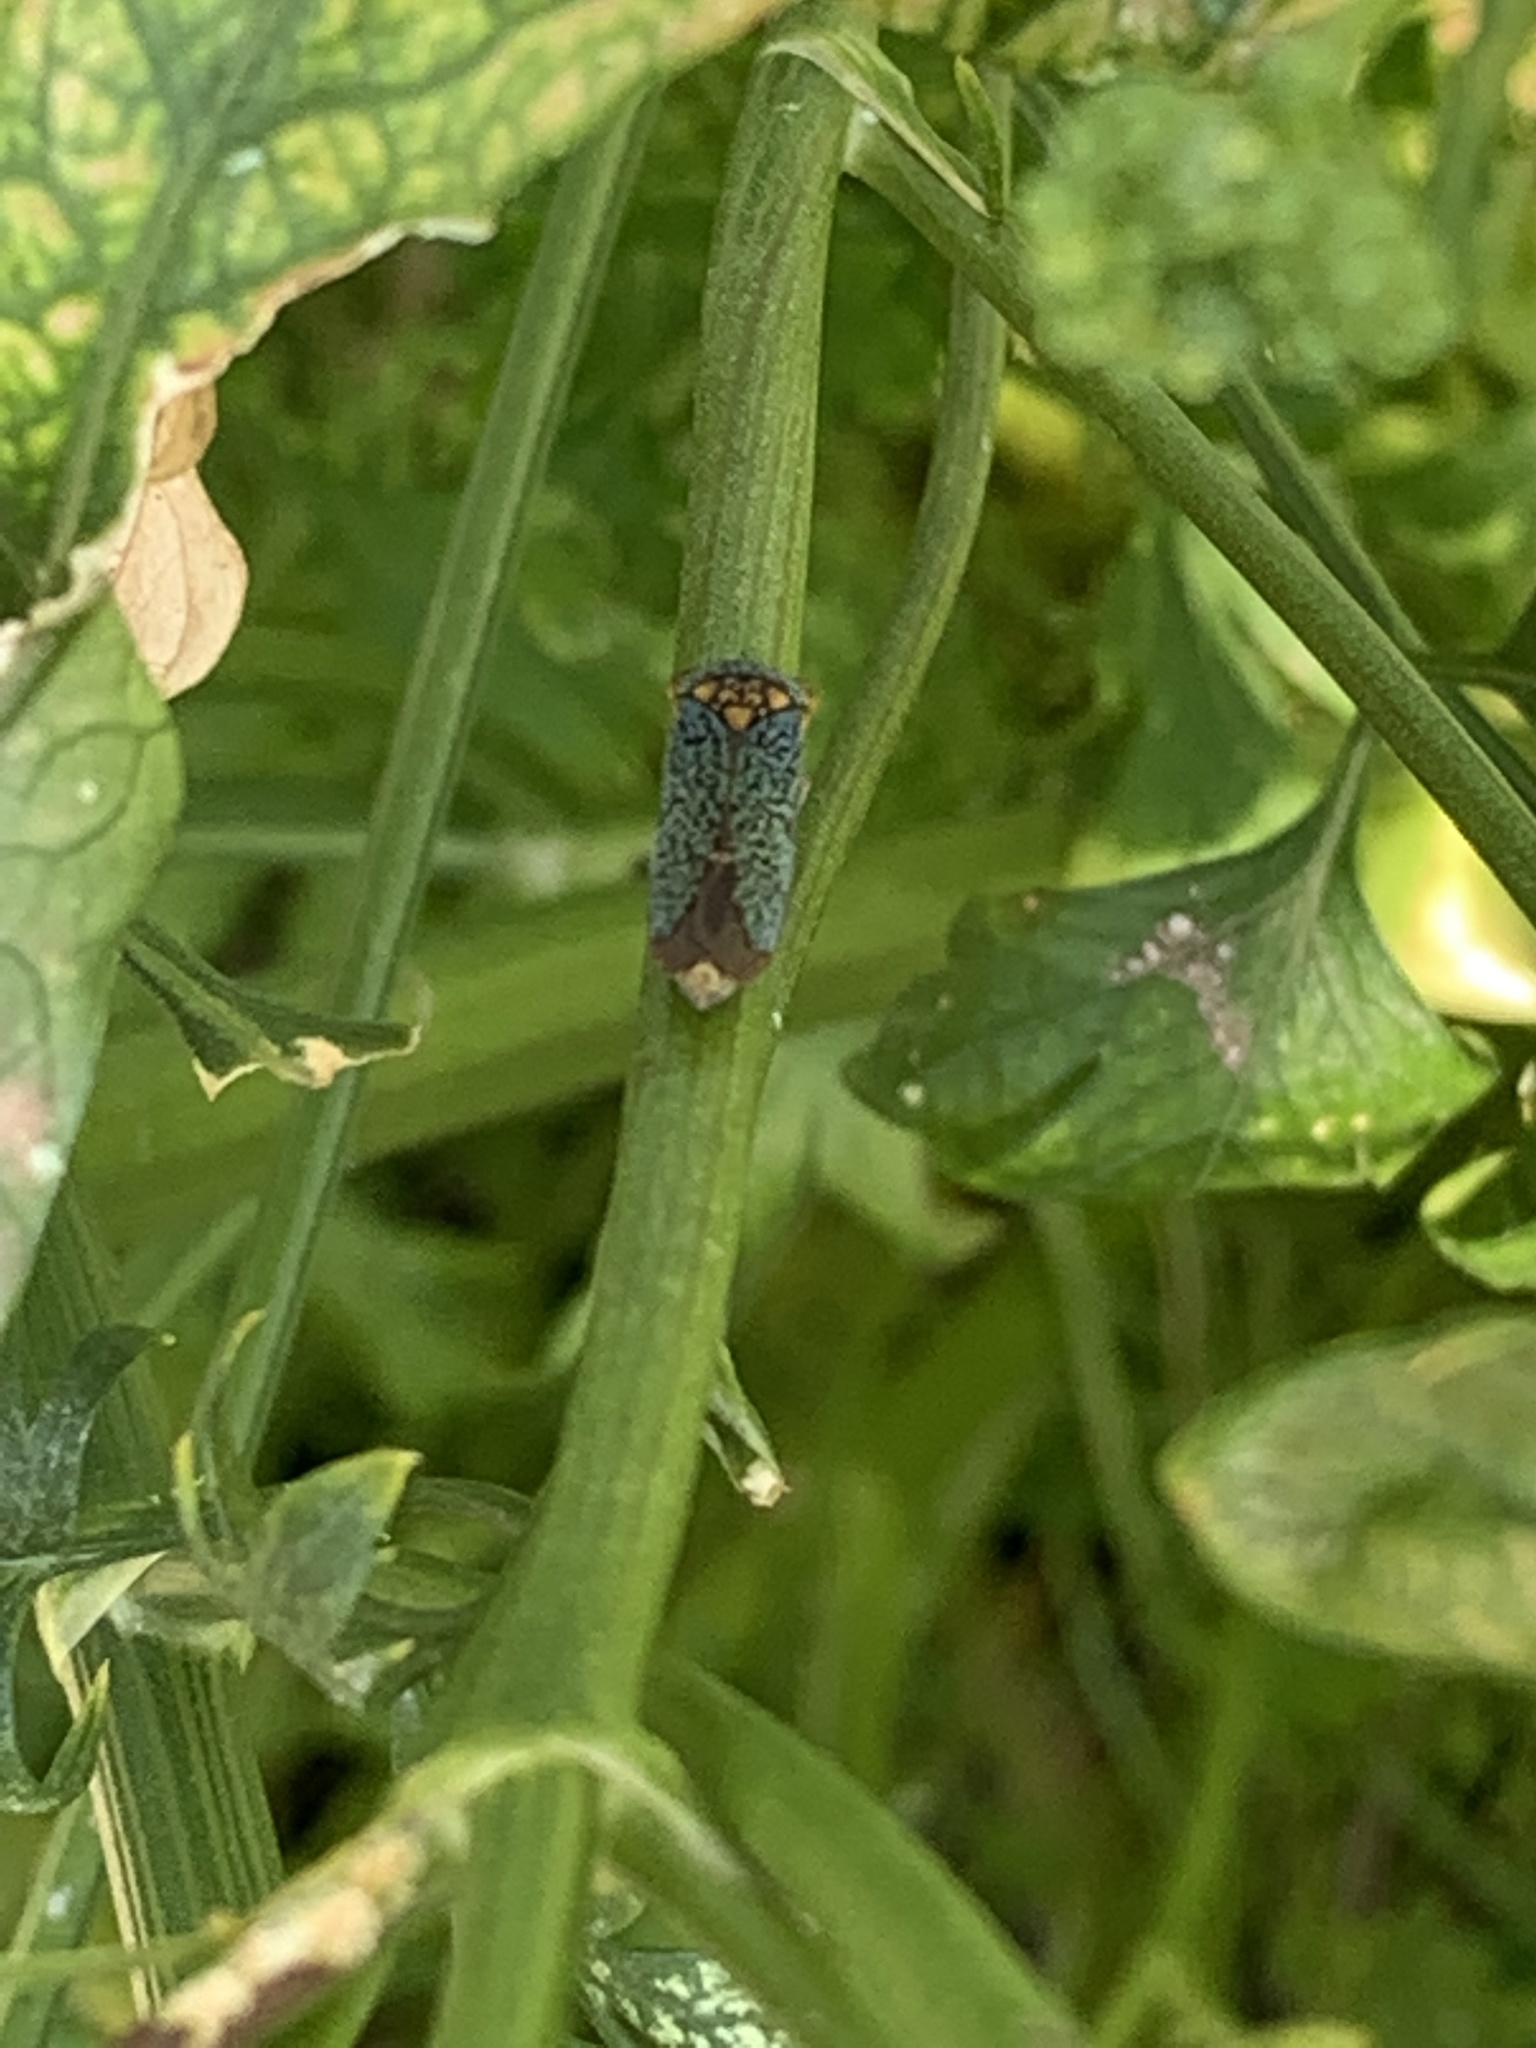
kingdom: Animalia
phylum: Arthropoda
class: Insecta
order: Hemiptera
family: Cicadellidae
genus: Oncometopia
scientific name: Oncometopia orbona
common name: Broad-headed sharpshooter
